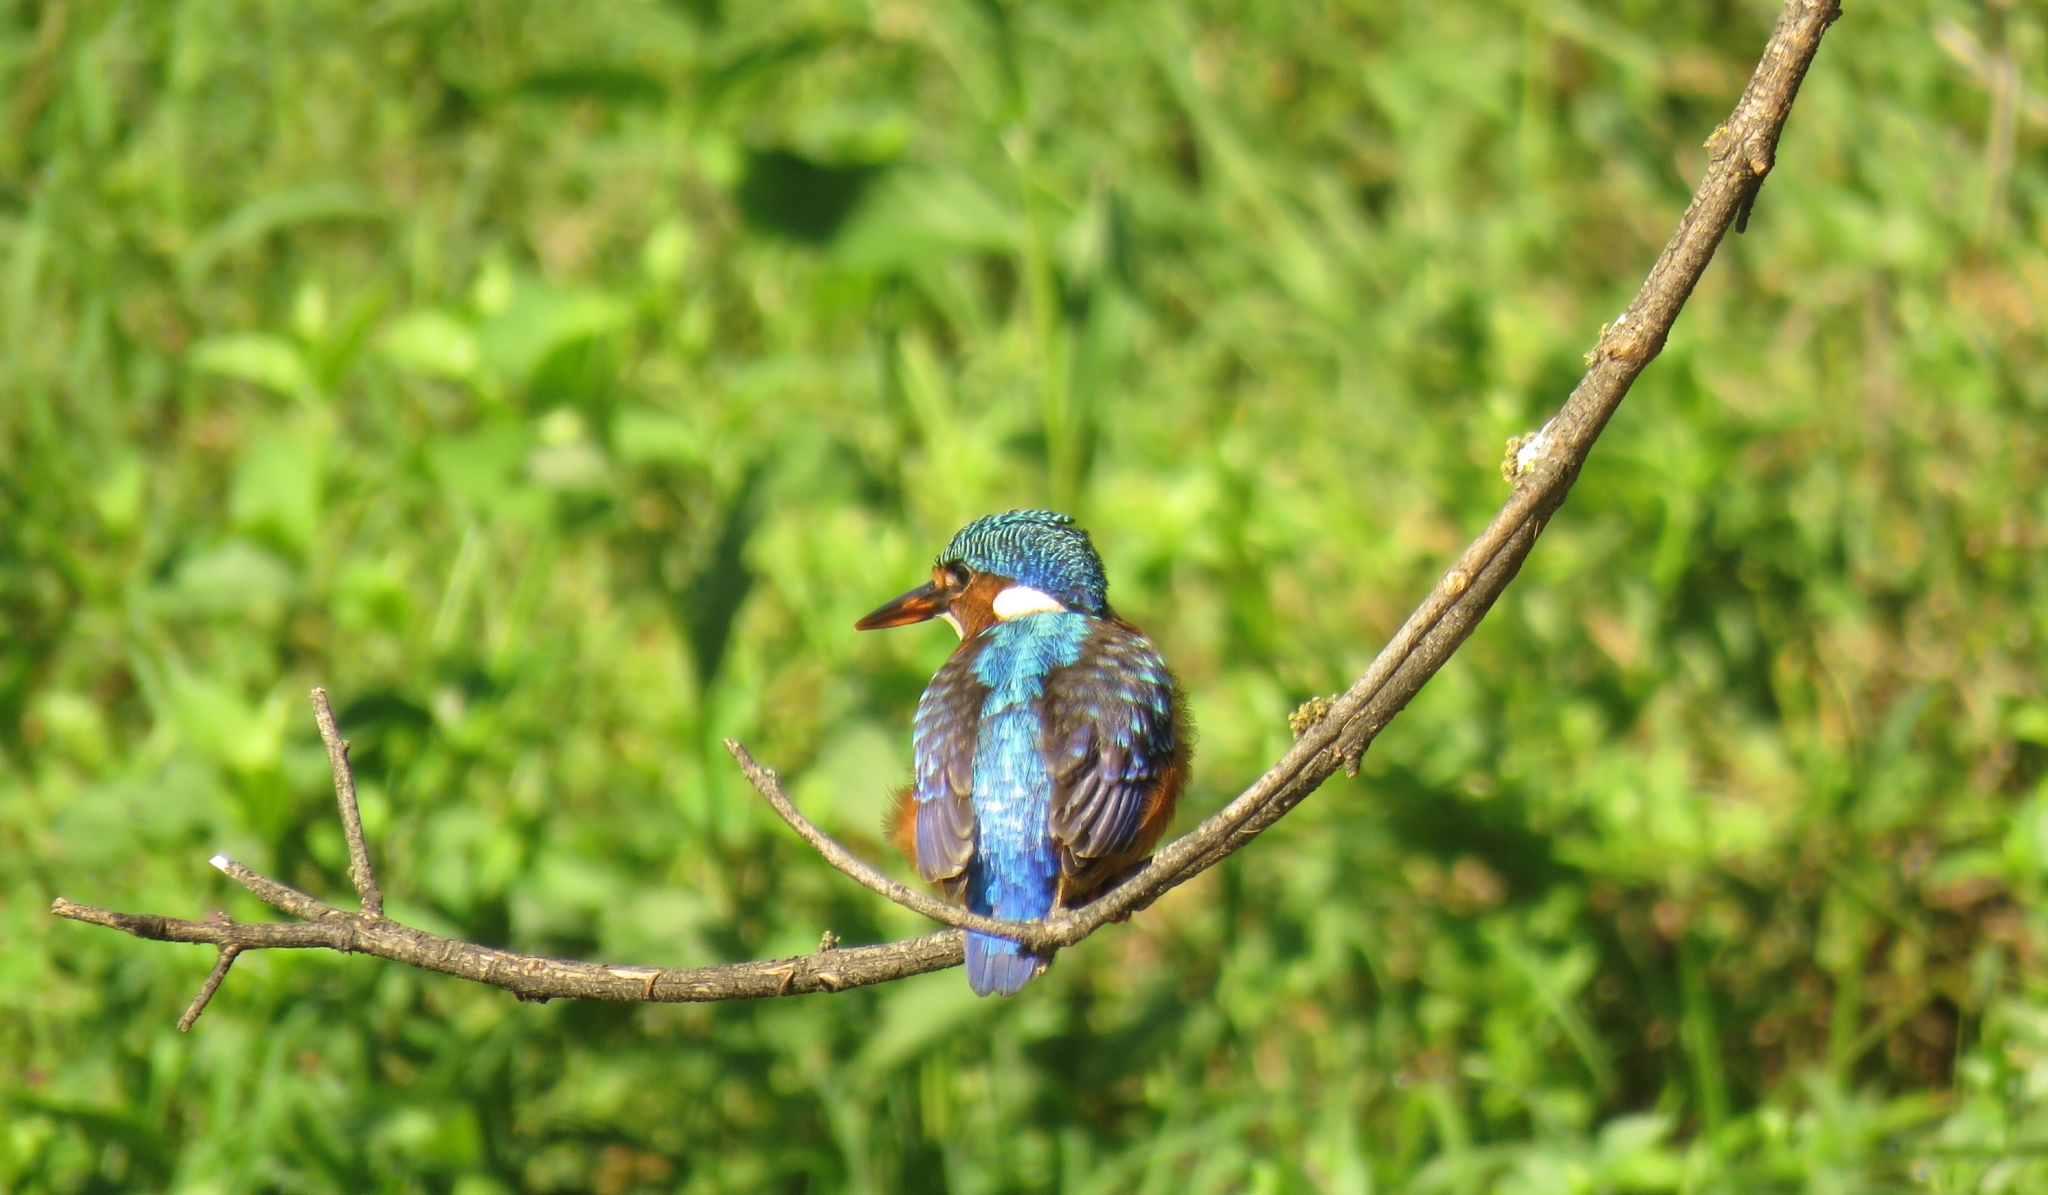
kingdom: Animalia
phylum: Chordata
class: Aves
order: Coraciiformes
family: Alcedinidae
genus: Corythornis
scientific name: Corythornis cristatus
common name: Malachite kingfisher
